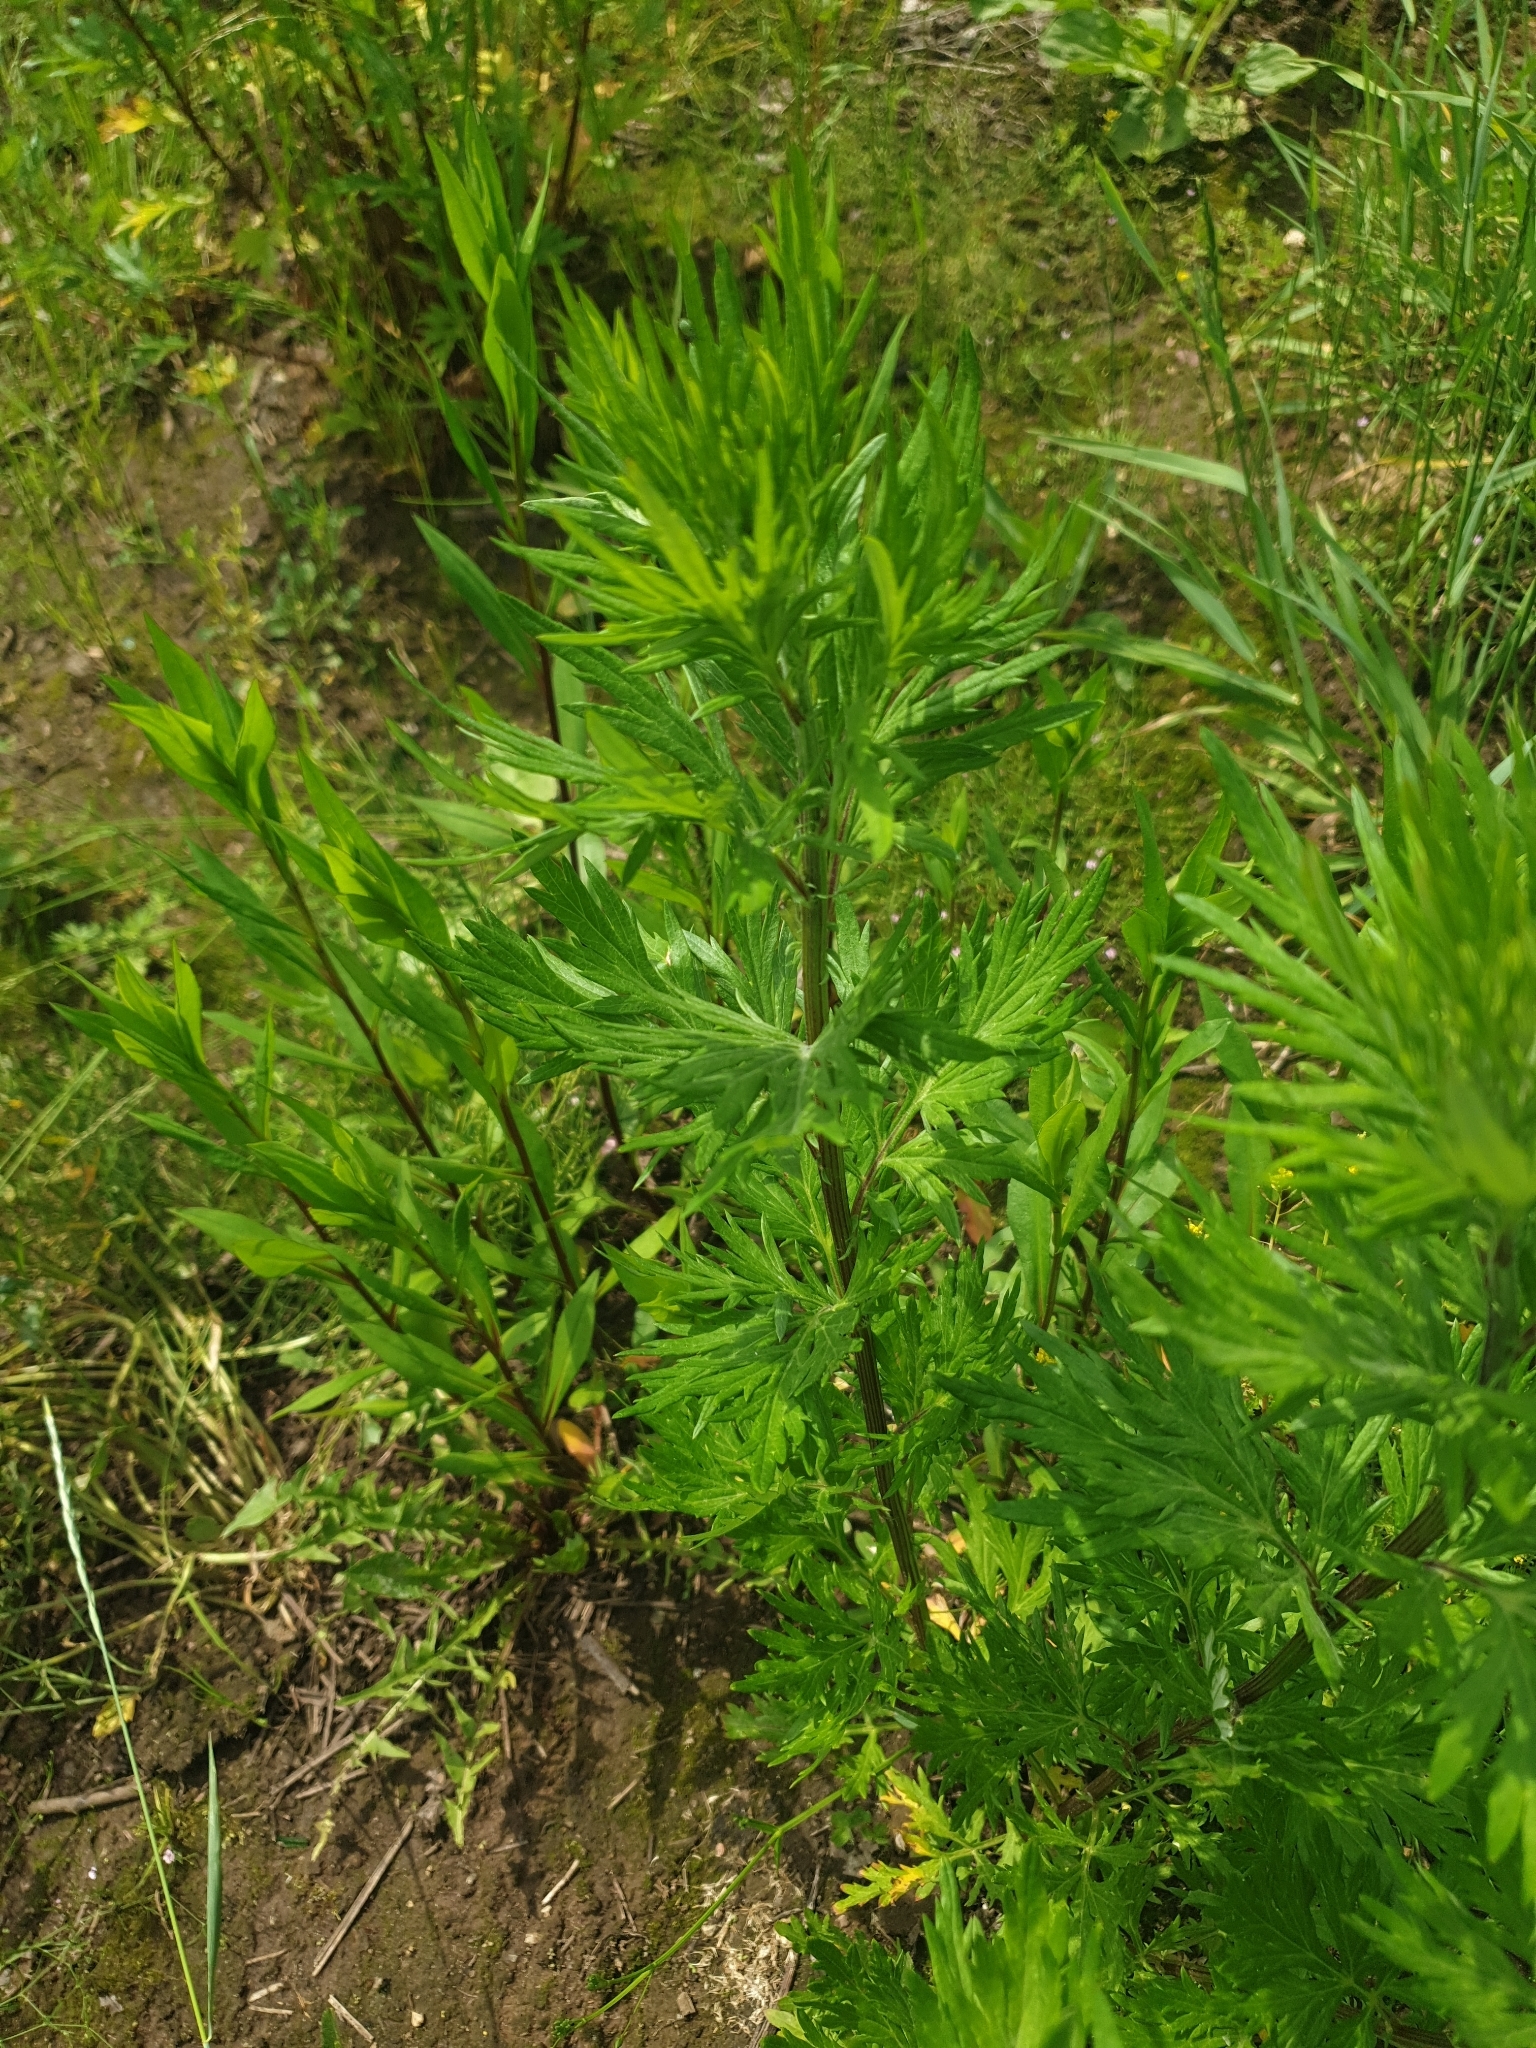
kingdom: Plantae
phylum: Tracheophyta
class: Magnoliopsida
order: Asterales
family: Asteraceae
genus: Artemisia
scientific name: Artemisia vulgaris
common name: Mugwort
